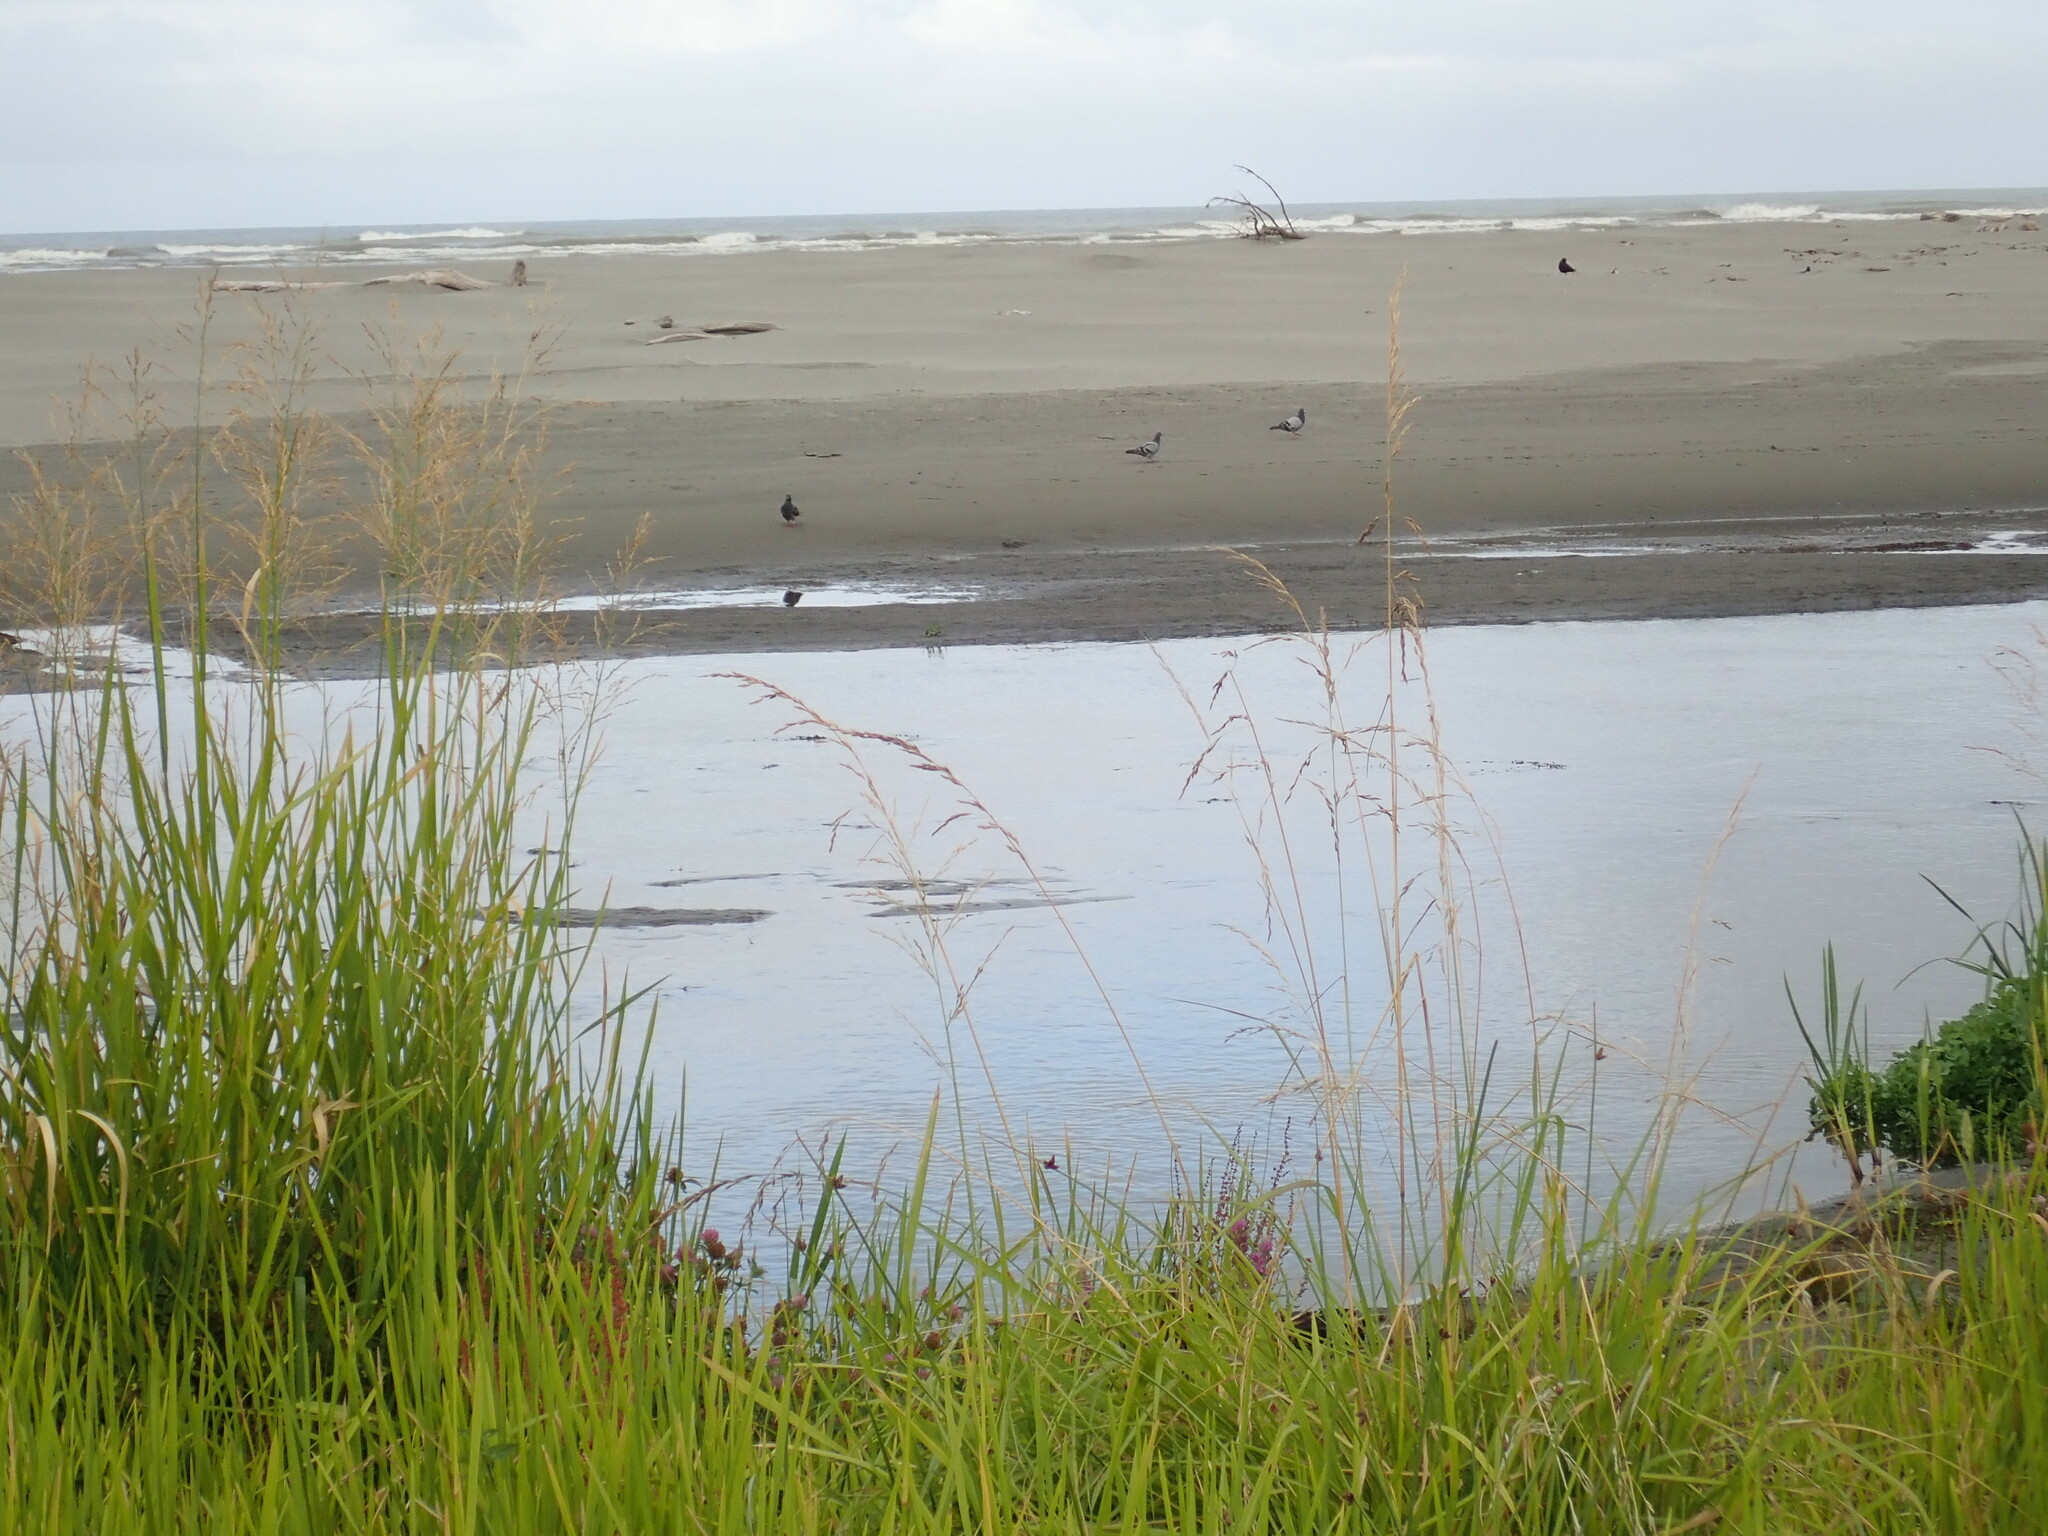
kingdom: Animalia
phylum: Chordata
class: Aves
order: Columbiformes
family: Columbidae
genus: Columba
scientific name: Columba livia
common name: Rock pigeon
